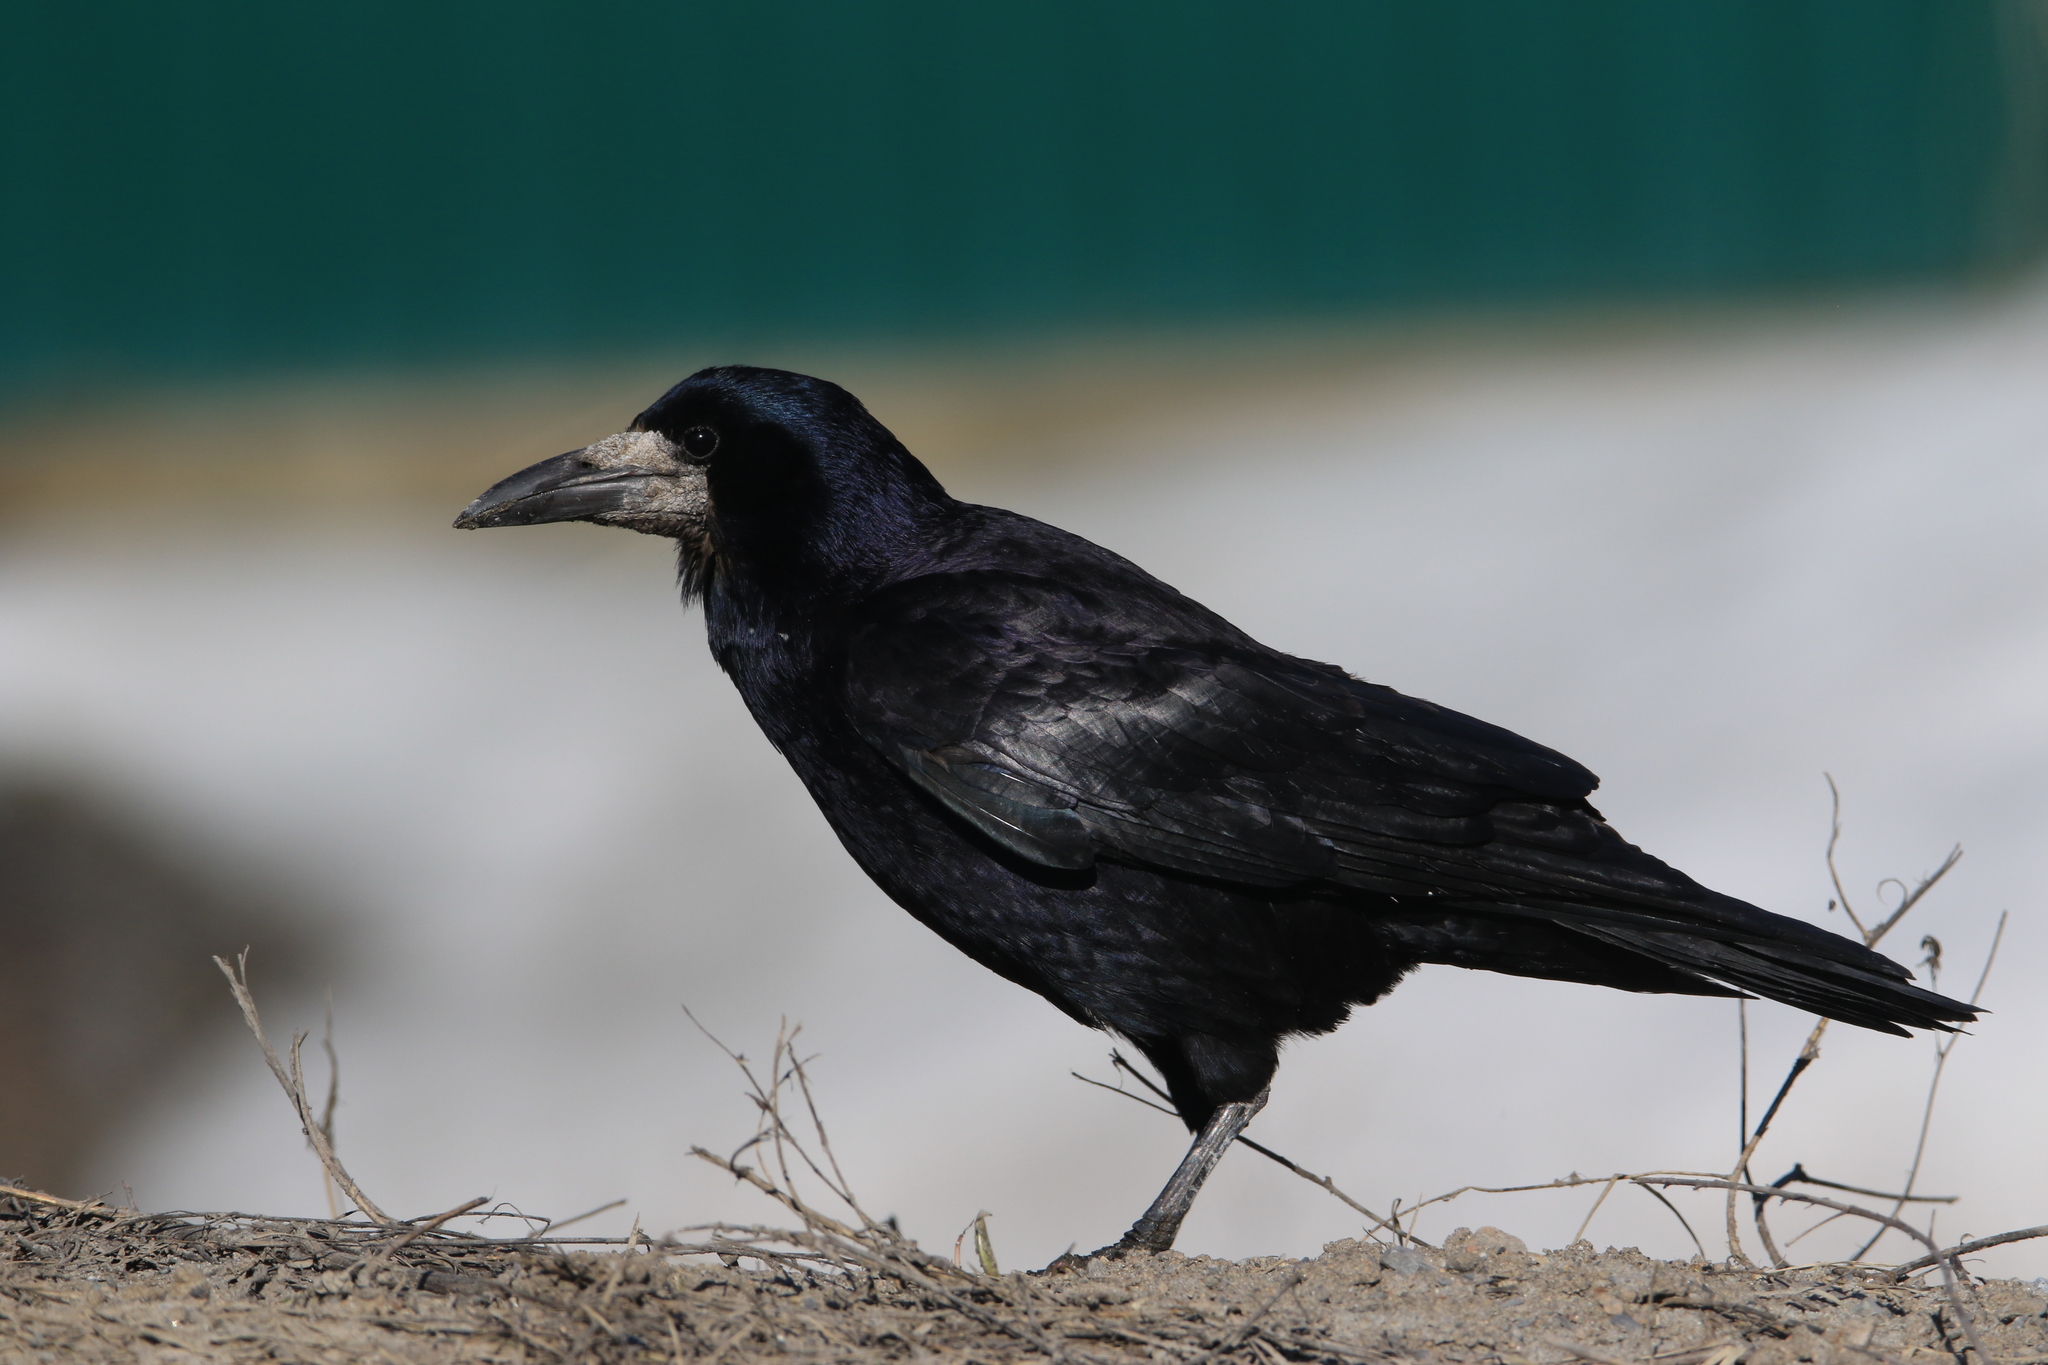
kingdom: Animalia
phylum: Chordata
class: Aves
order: Passeriformes
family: Corvidae
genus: Corvus
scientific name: Corvus frugilegus
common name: Rook
